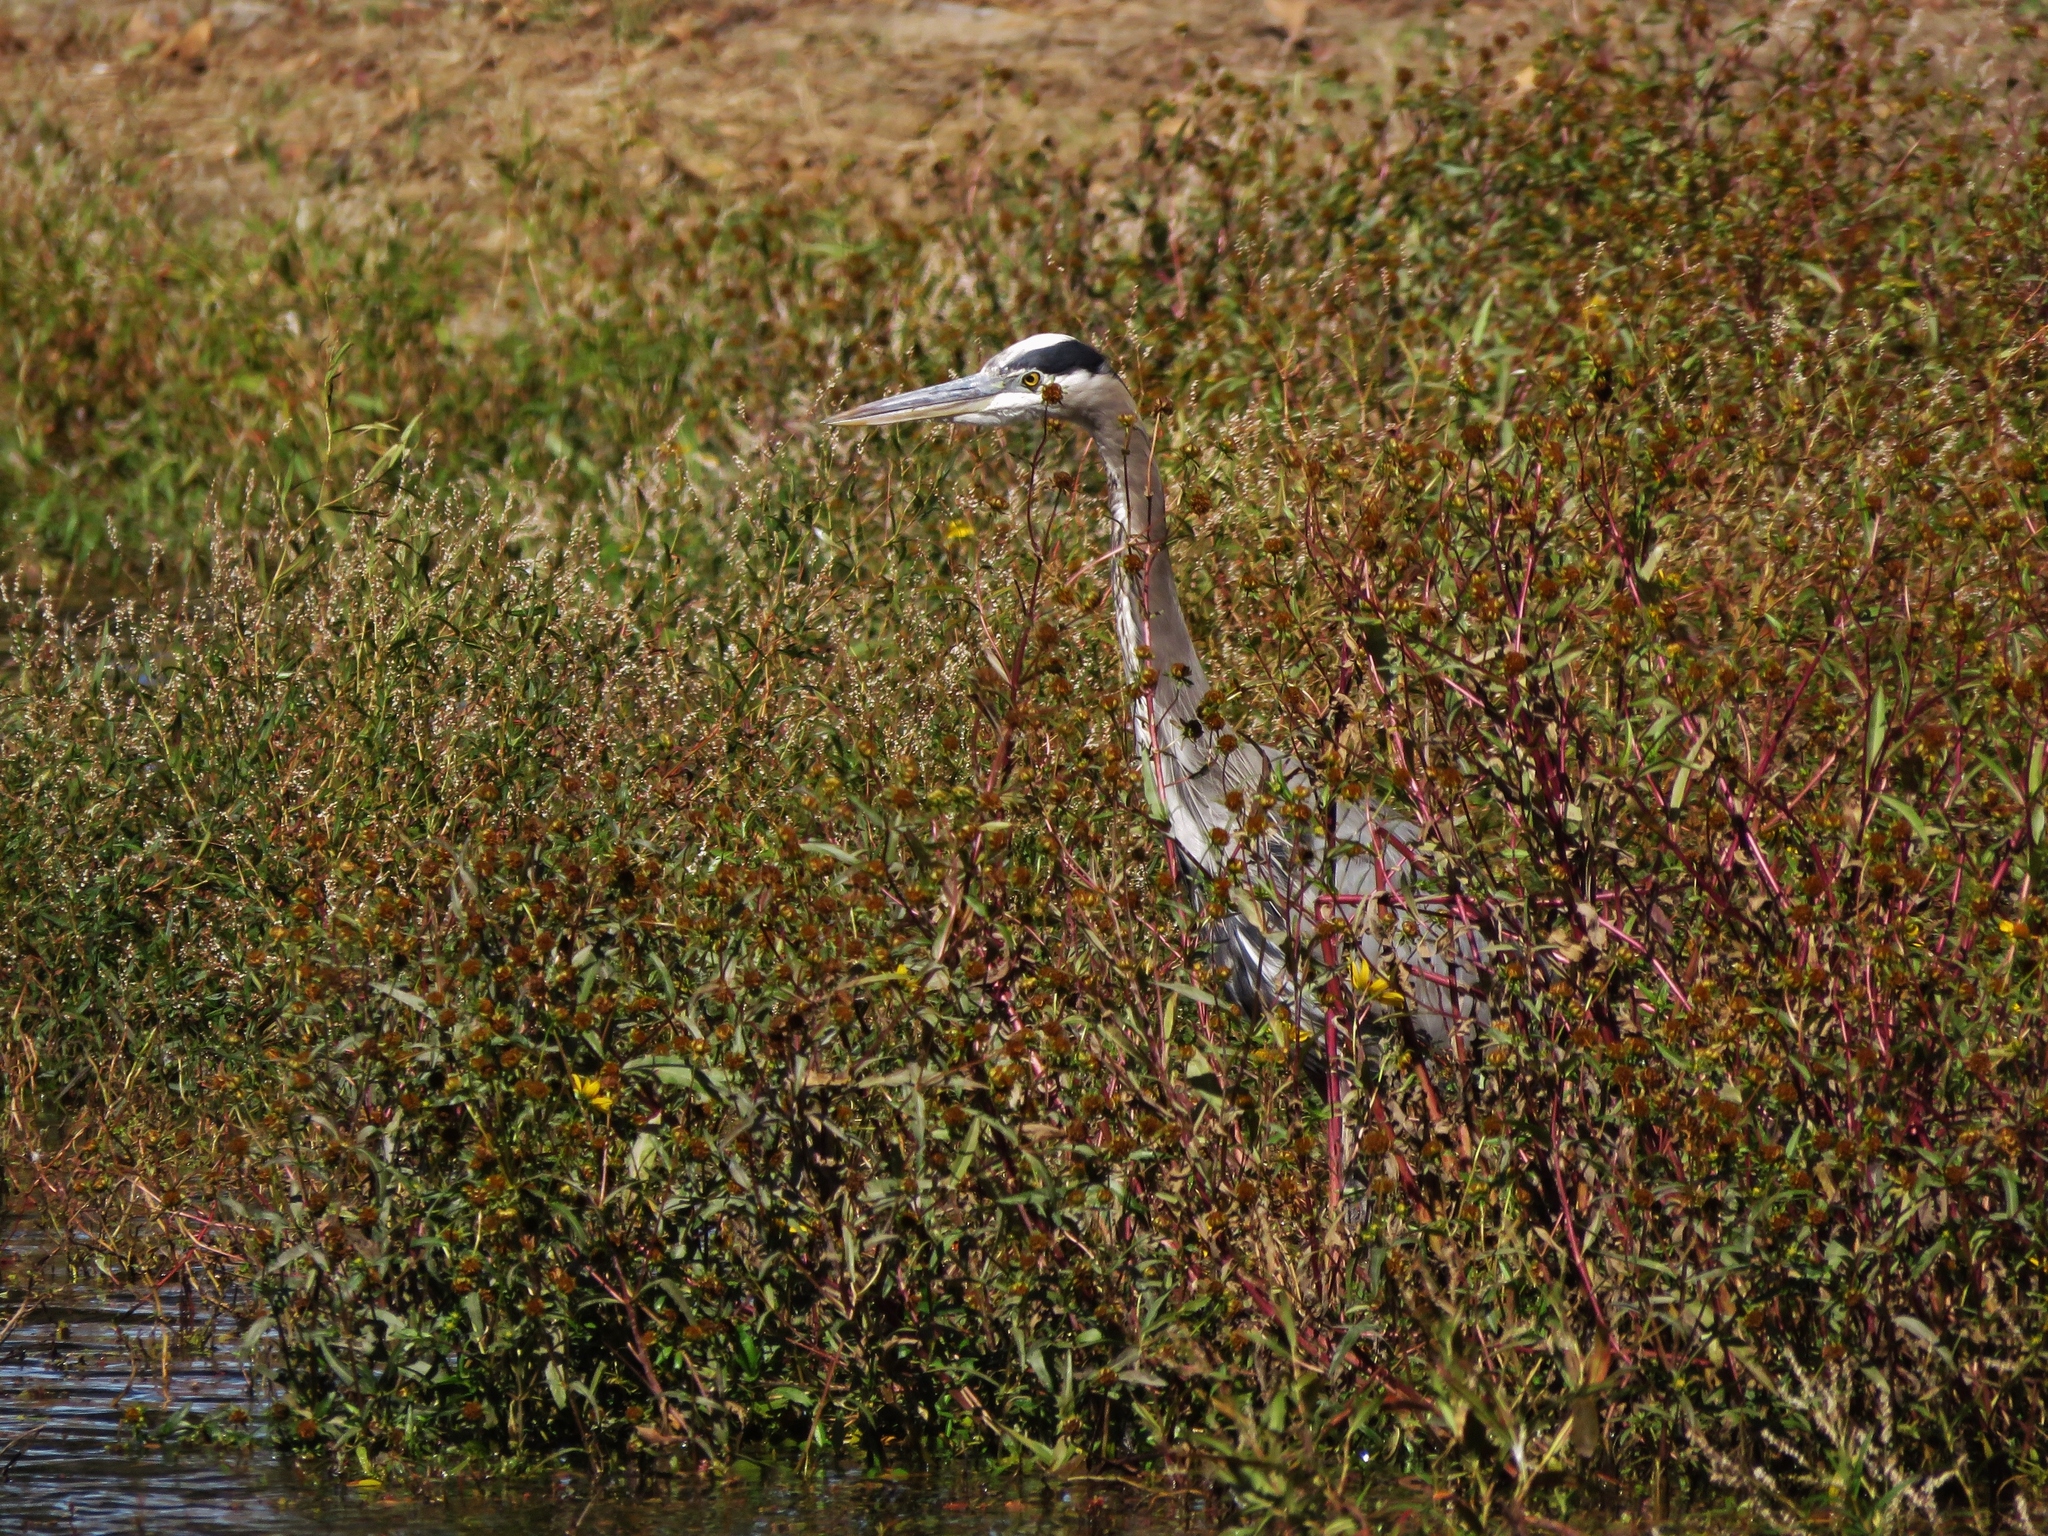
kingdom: Animalia
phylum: Chordata
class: Aves
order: Pelecaniformes
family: Ardeidae
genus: Ardea
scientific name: Ardea herodias
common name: Great blue heron
